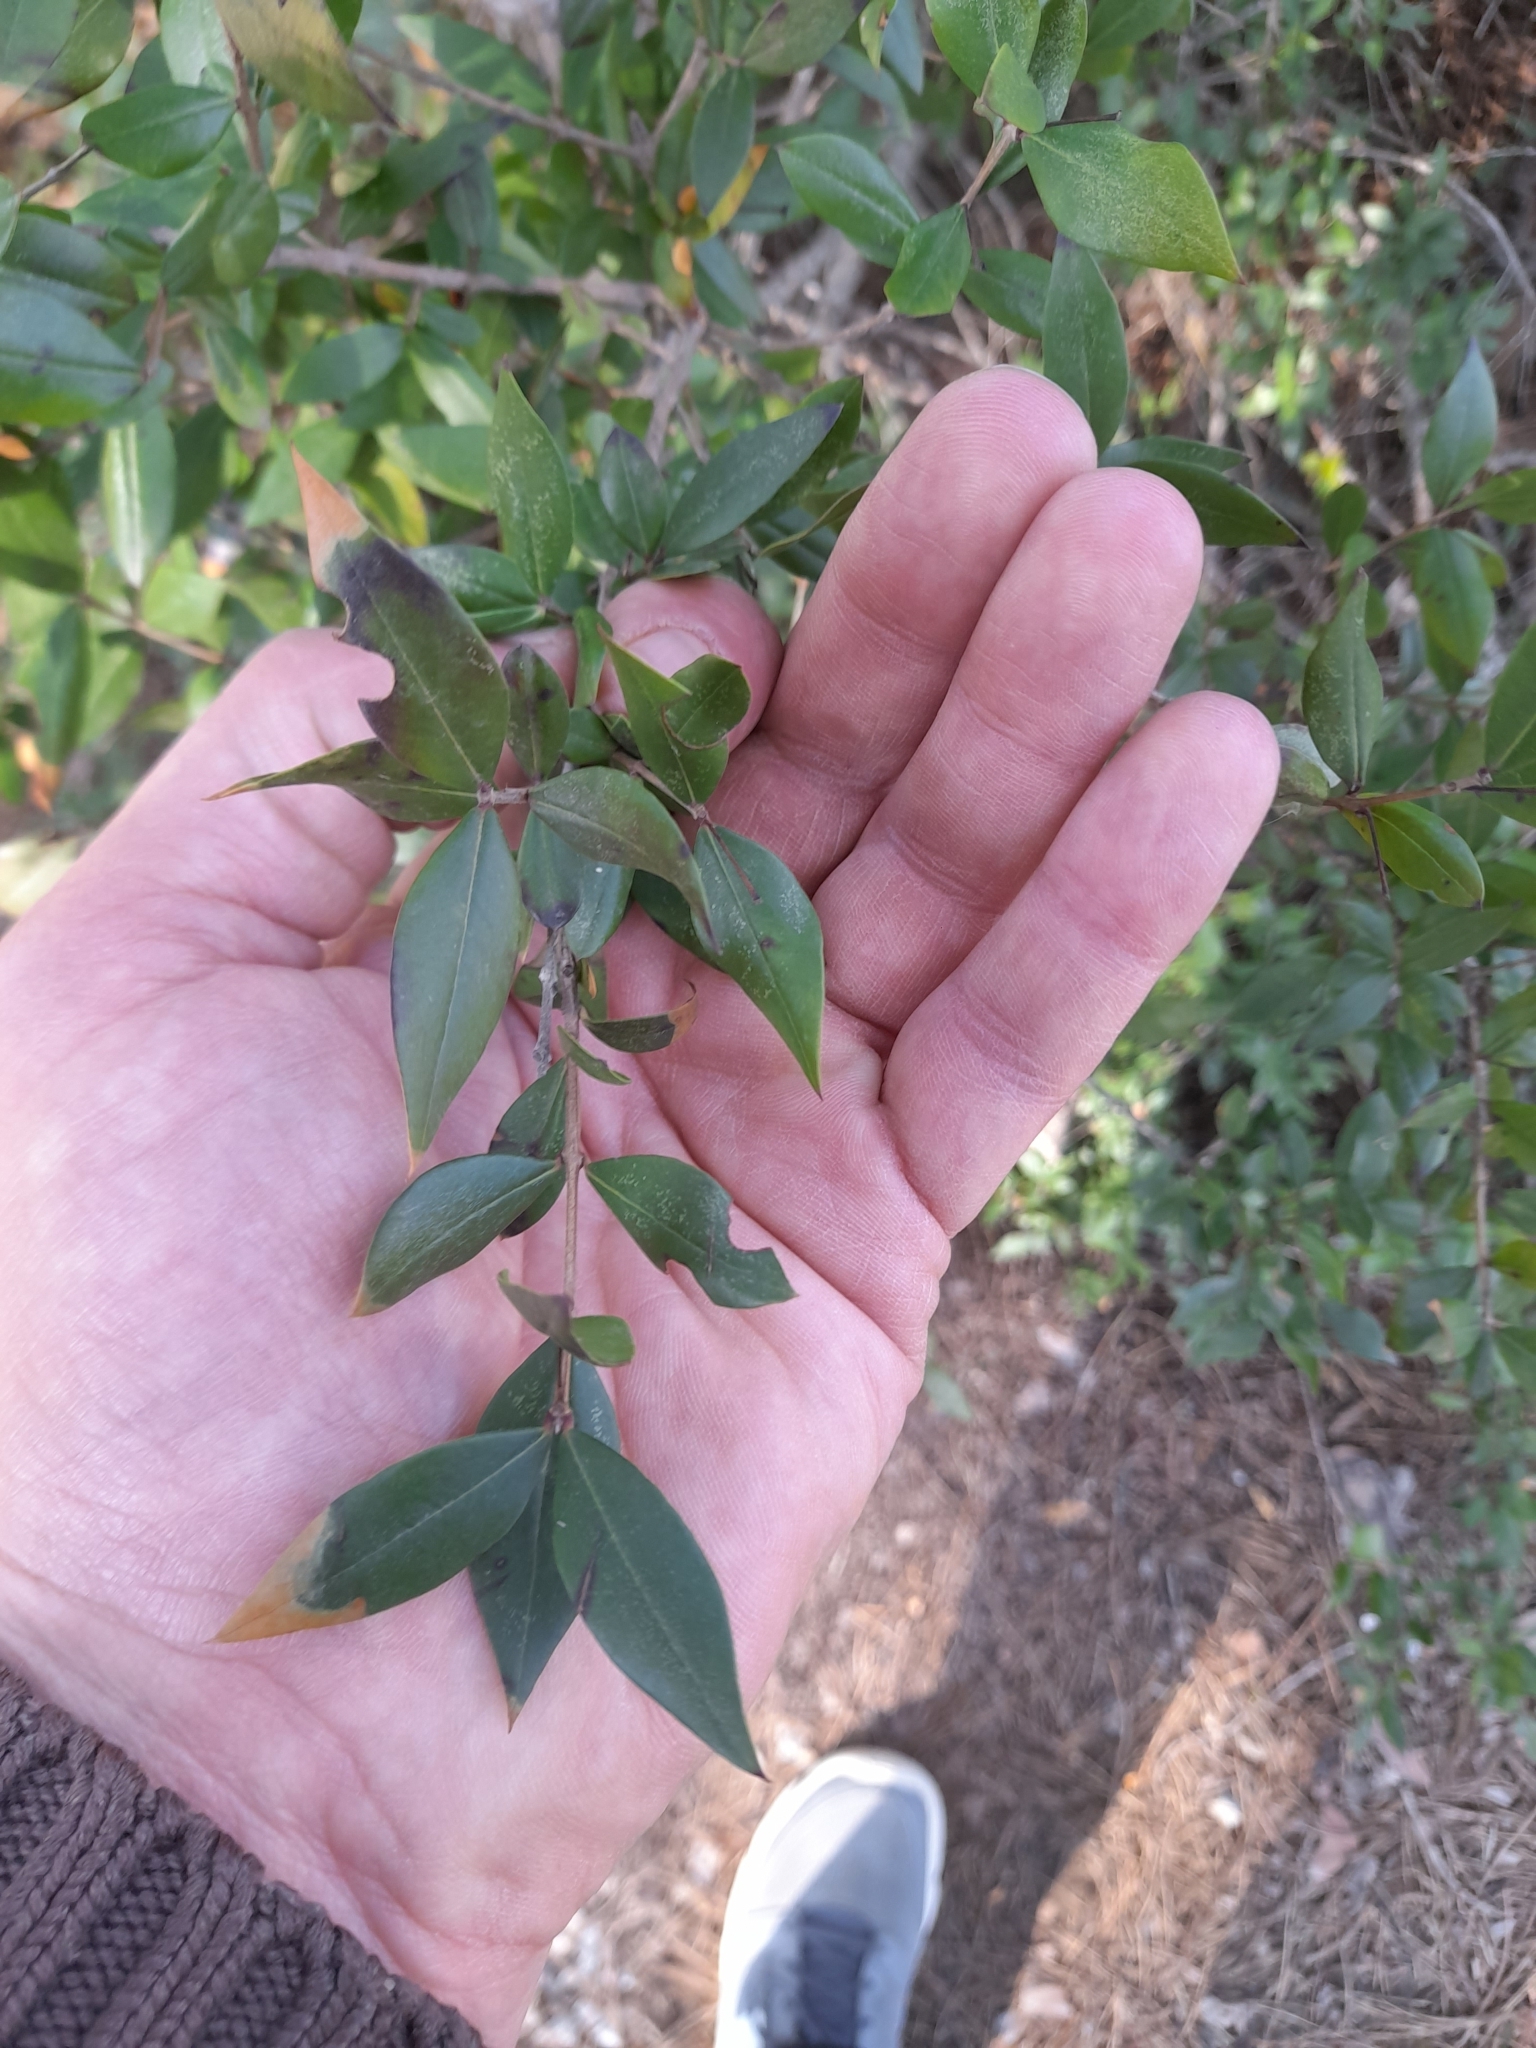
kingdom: Plantae
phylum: Tracheophyta
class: Magnoliopsida
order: Myrtales
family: Myrtaceae
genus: Myrtus
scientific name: Myrtus communis
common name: Myrtle
